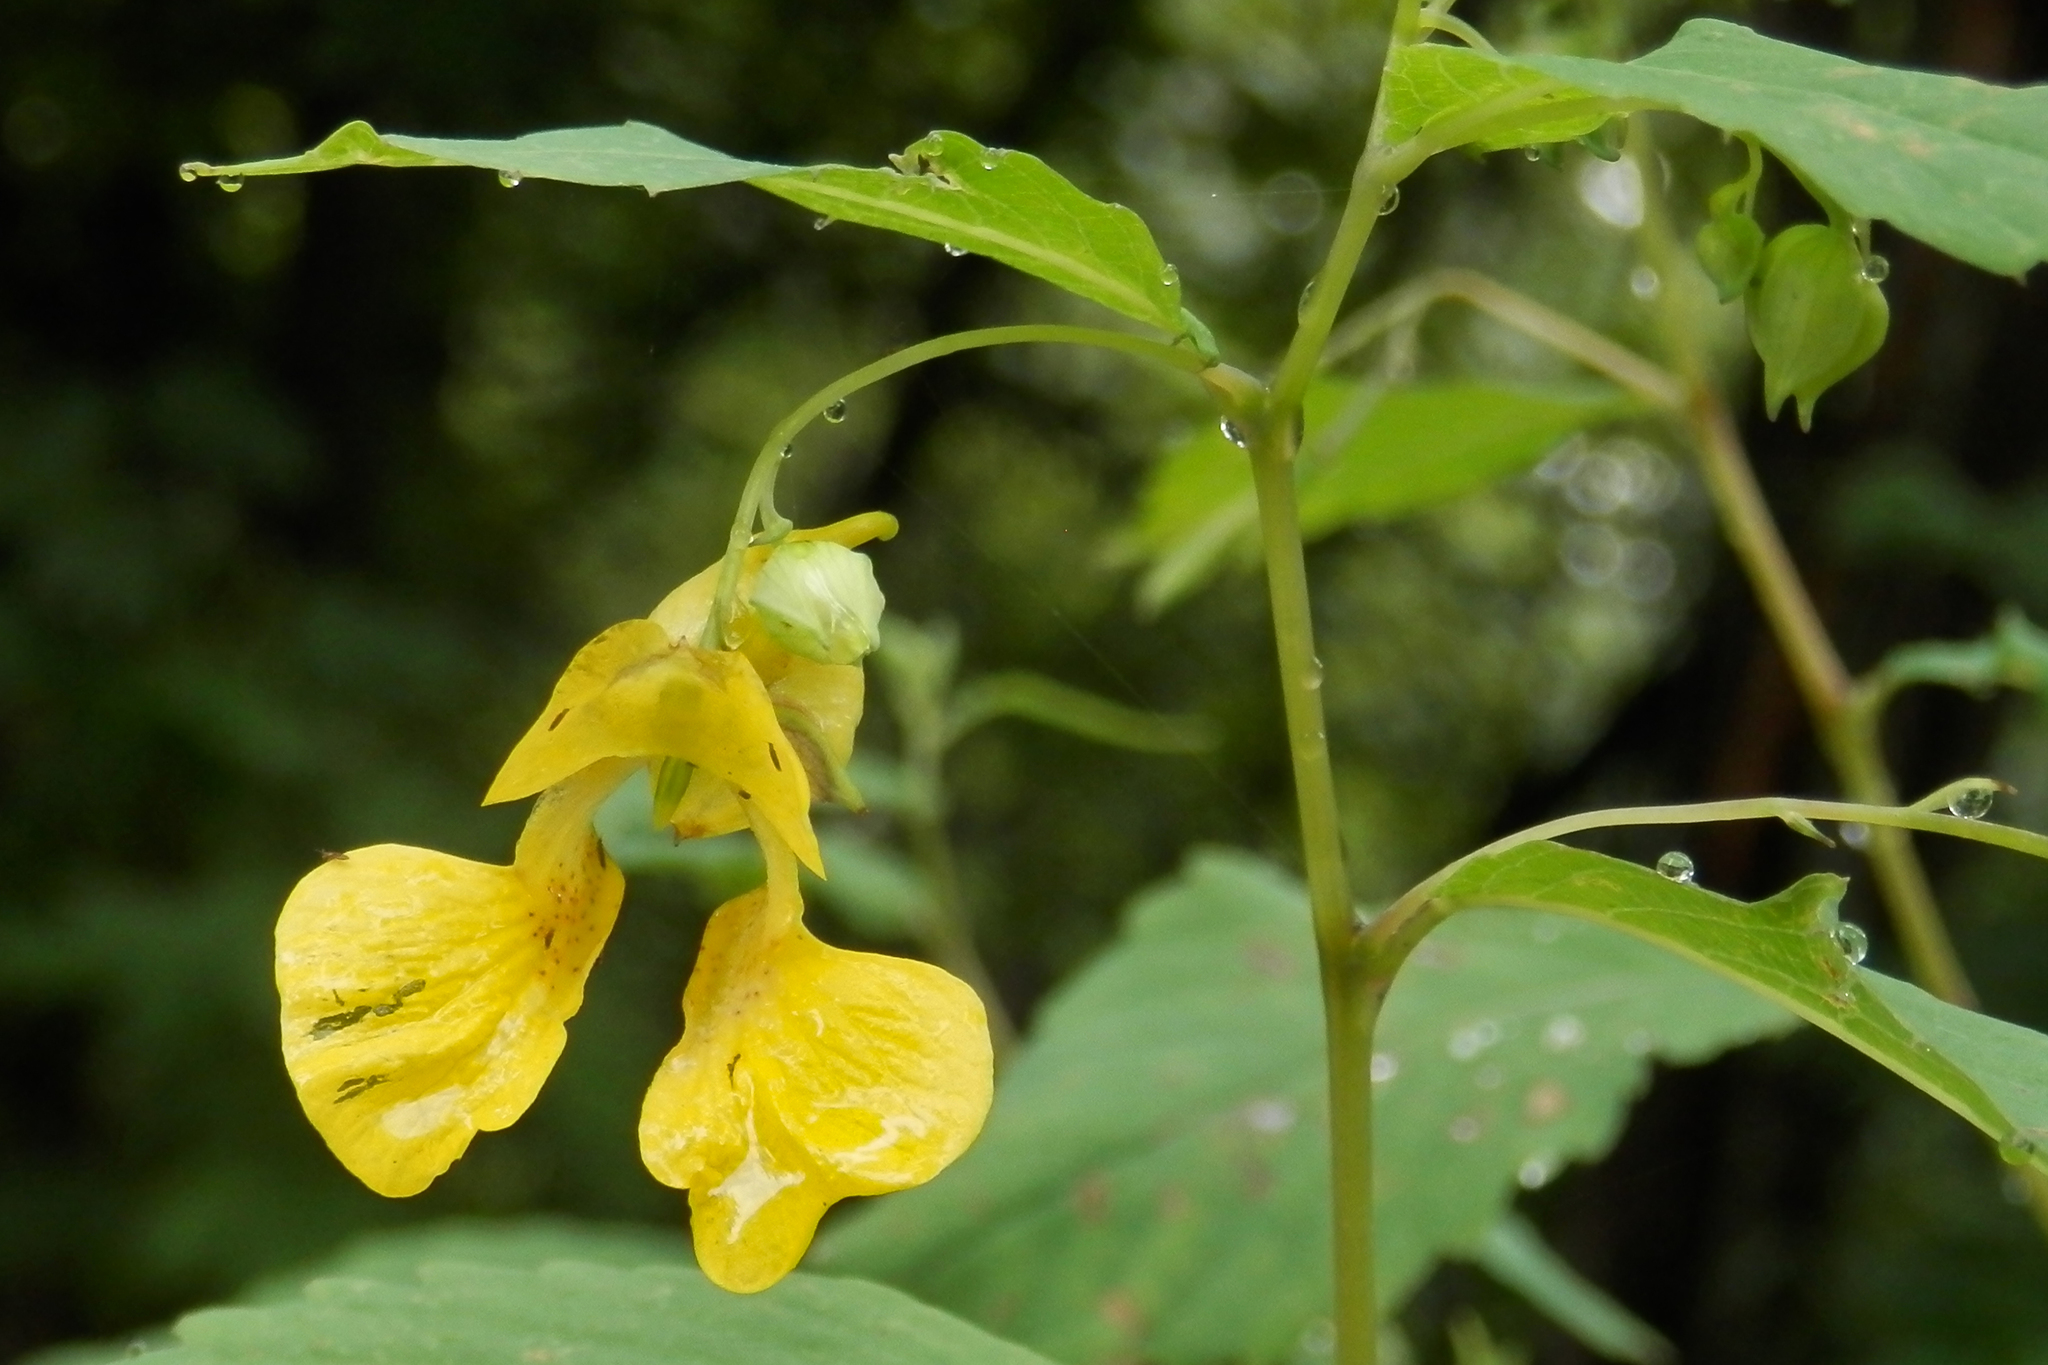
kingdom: Plantae
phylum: Tracheophyta
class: Magnoliopsida
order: Ericales
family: Balsaminaceae
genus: Impatiens
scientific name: Impatiens pallida
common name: Pale snapweed
